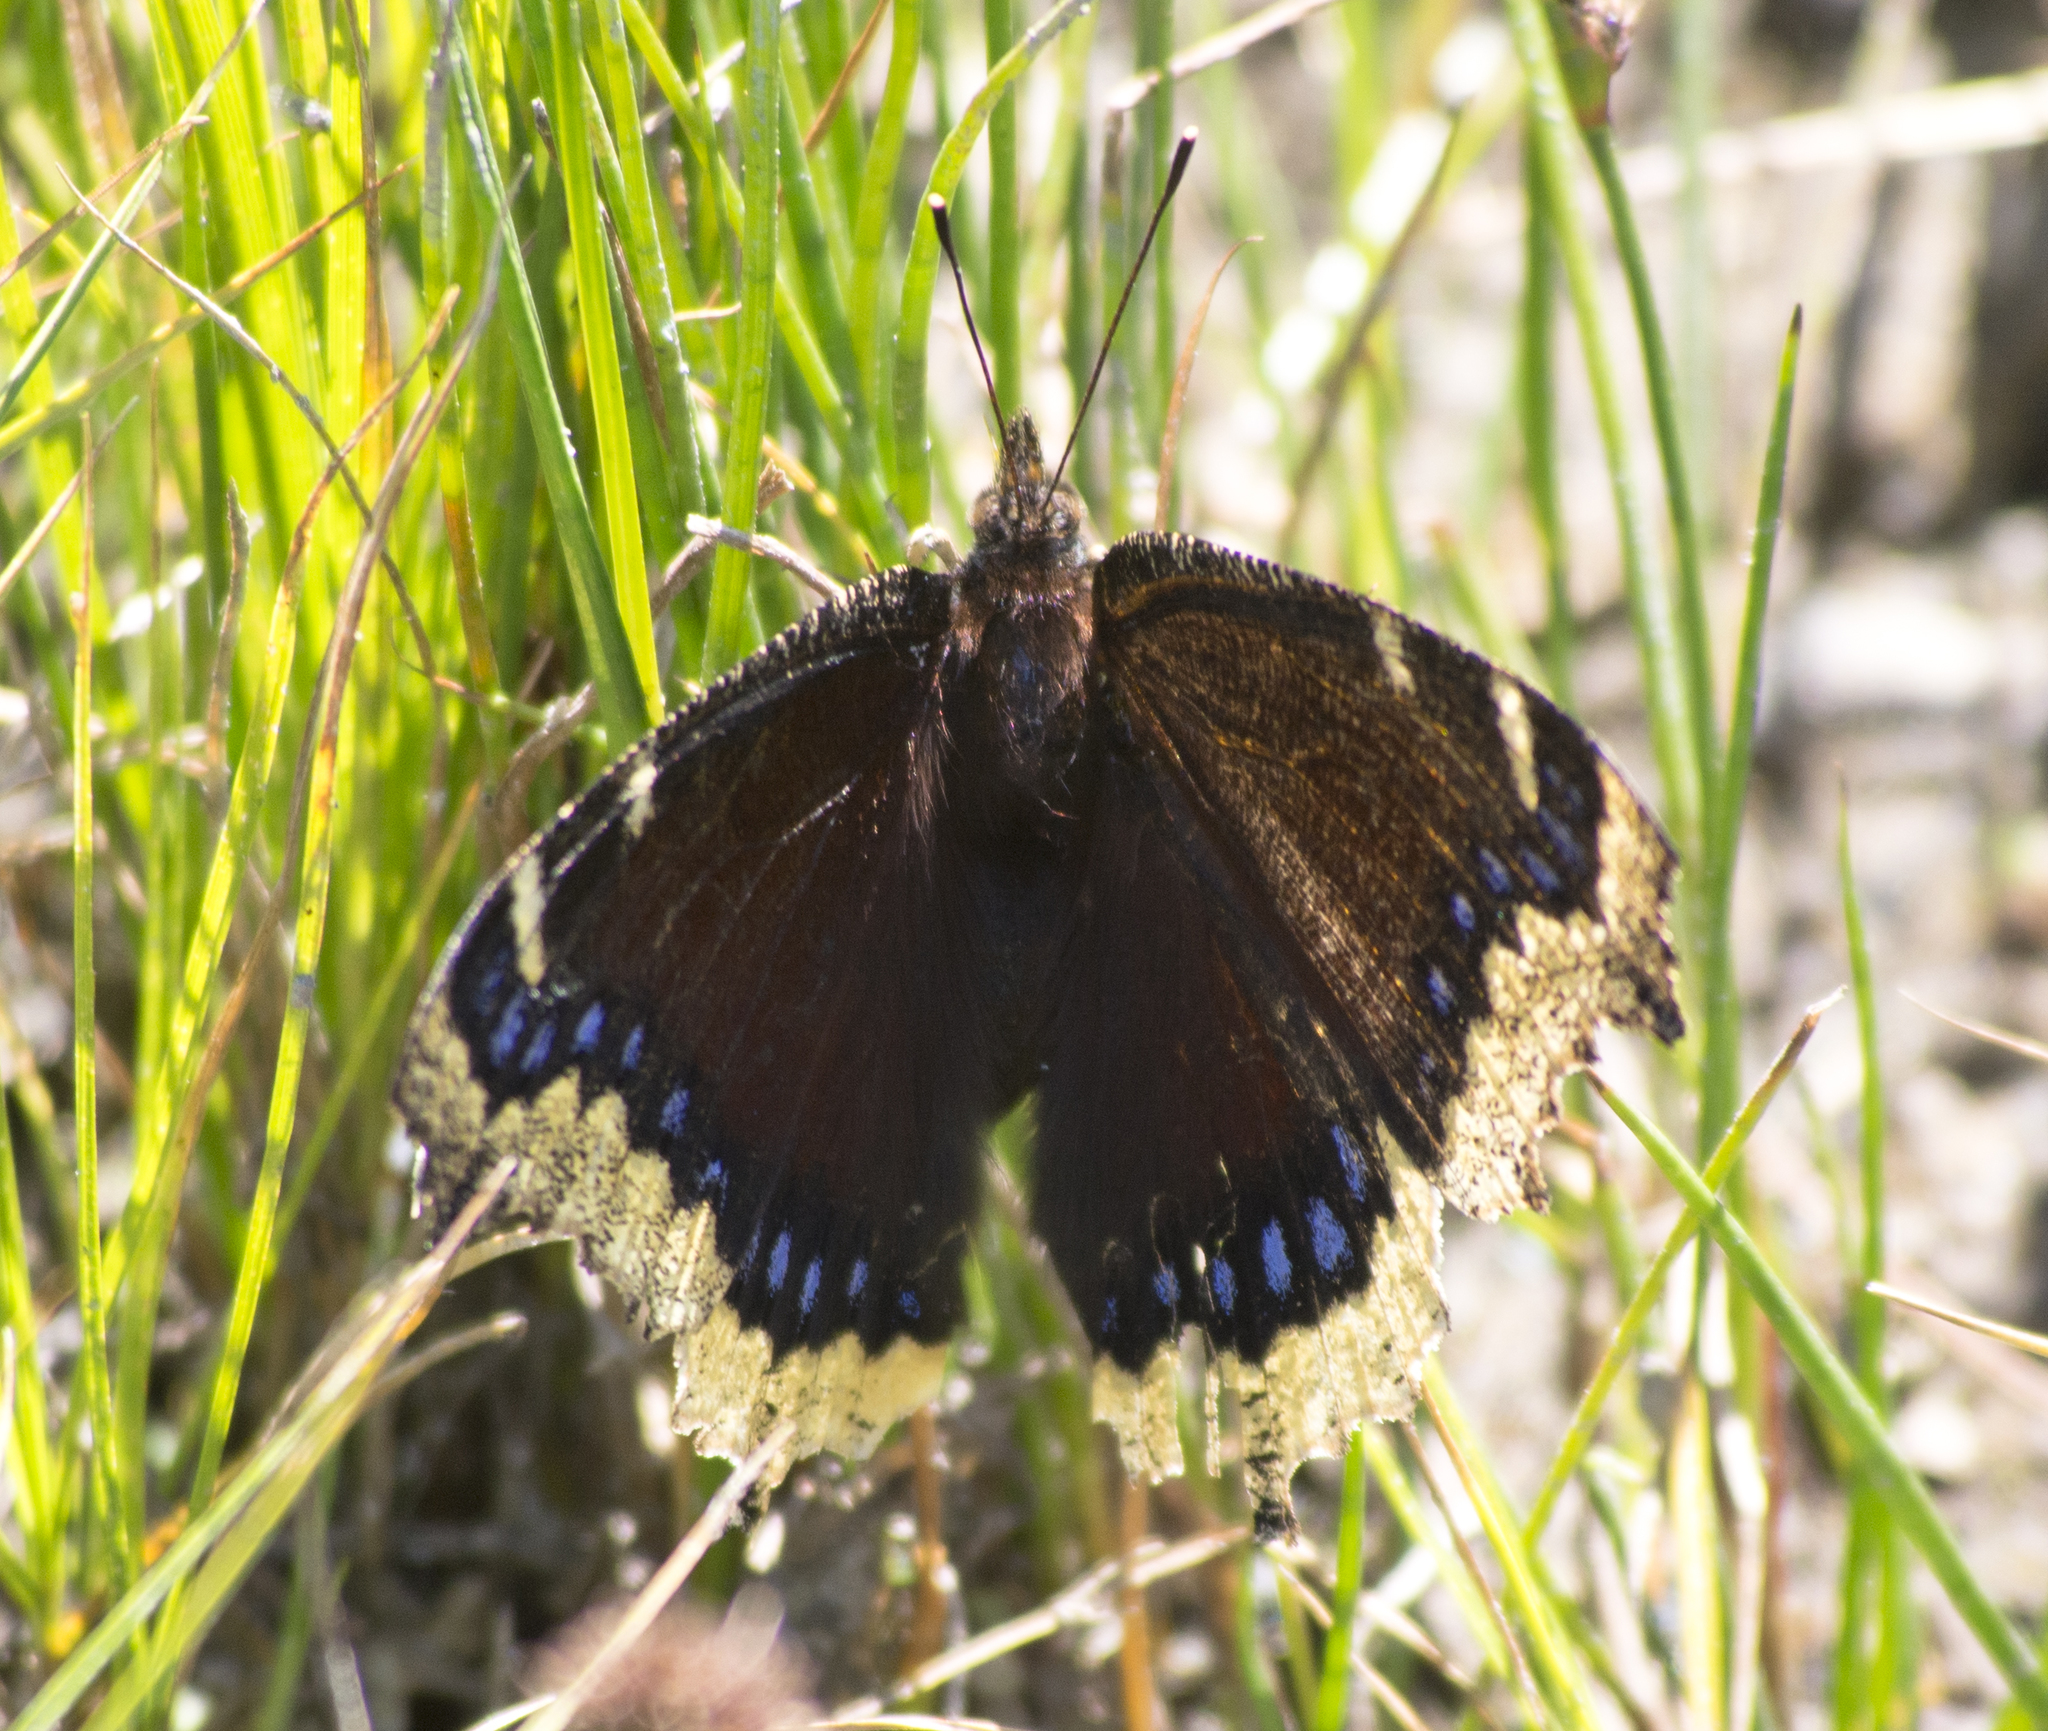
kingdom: Animalia
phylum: Arthropoda
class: Insecta
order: Lepidoptera
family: Nymphalidae
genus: Nymphalis
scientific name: Nymphalis antiopa
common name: Camberwell beauty
